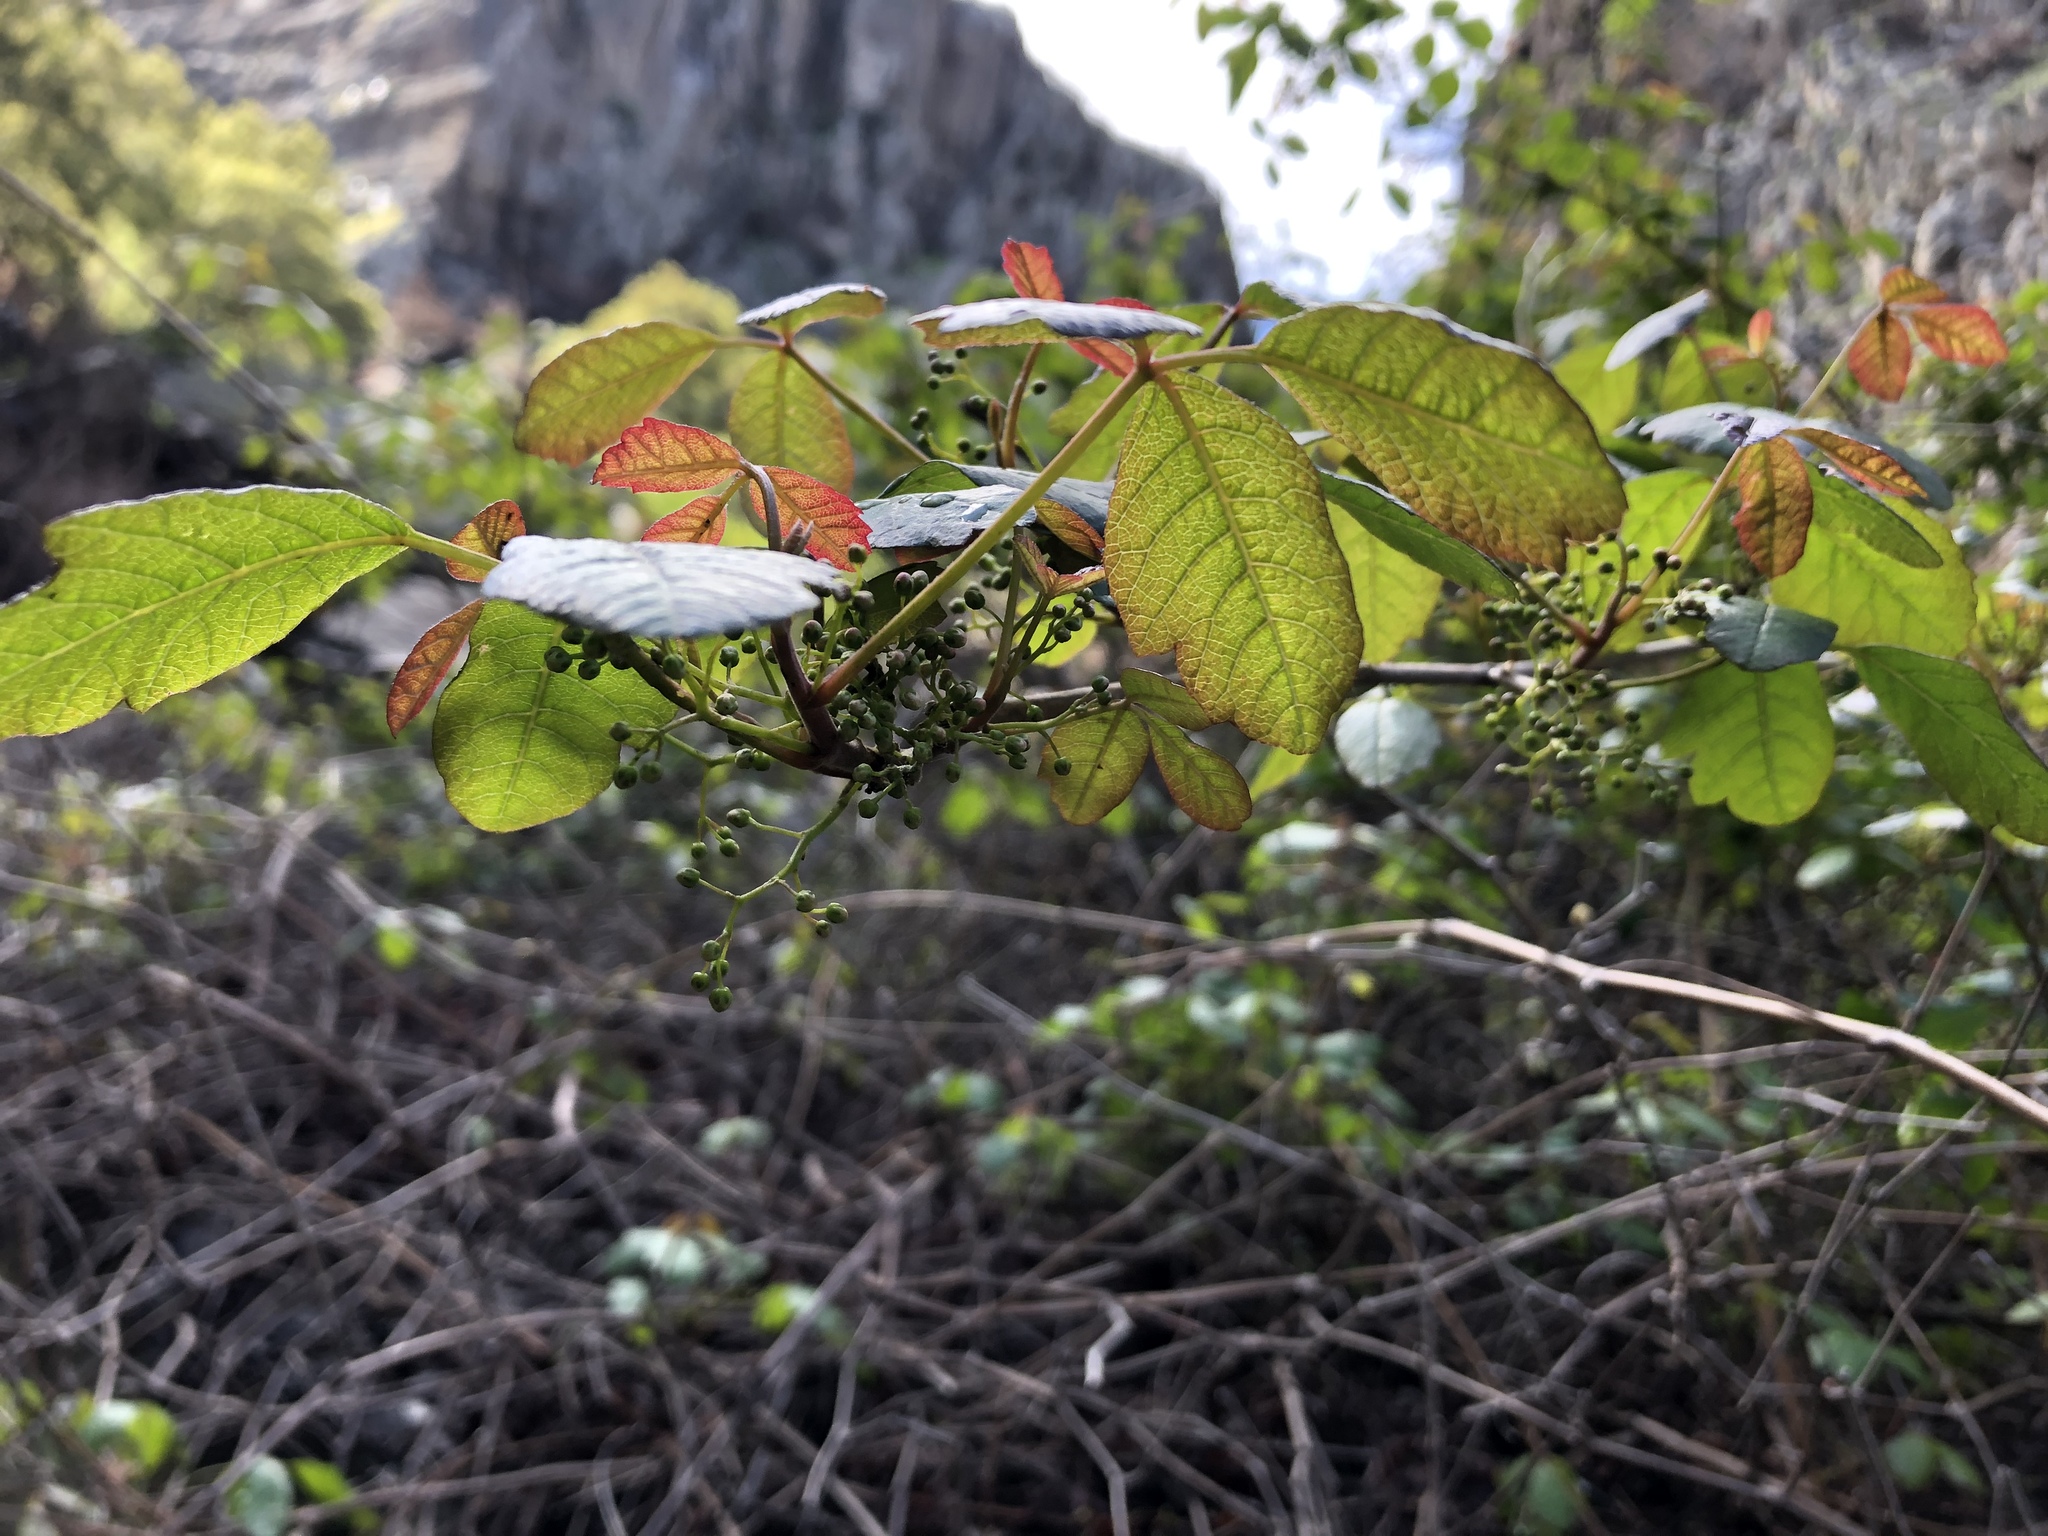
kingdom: Plantae
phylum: Tracheophyta
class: Magnoliopsida
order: Sapindales
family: Anacardiaceae
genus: Toxicodendron
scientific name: Toxicodendron diversilobum
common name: Pacific poison-oak
